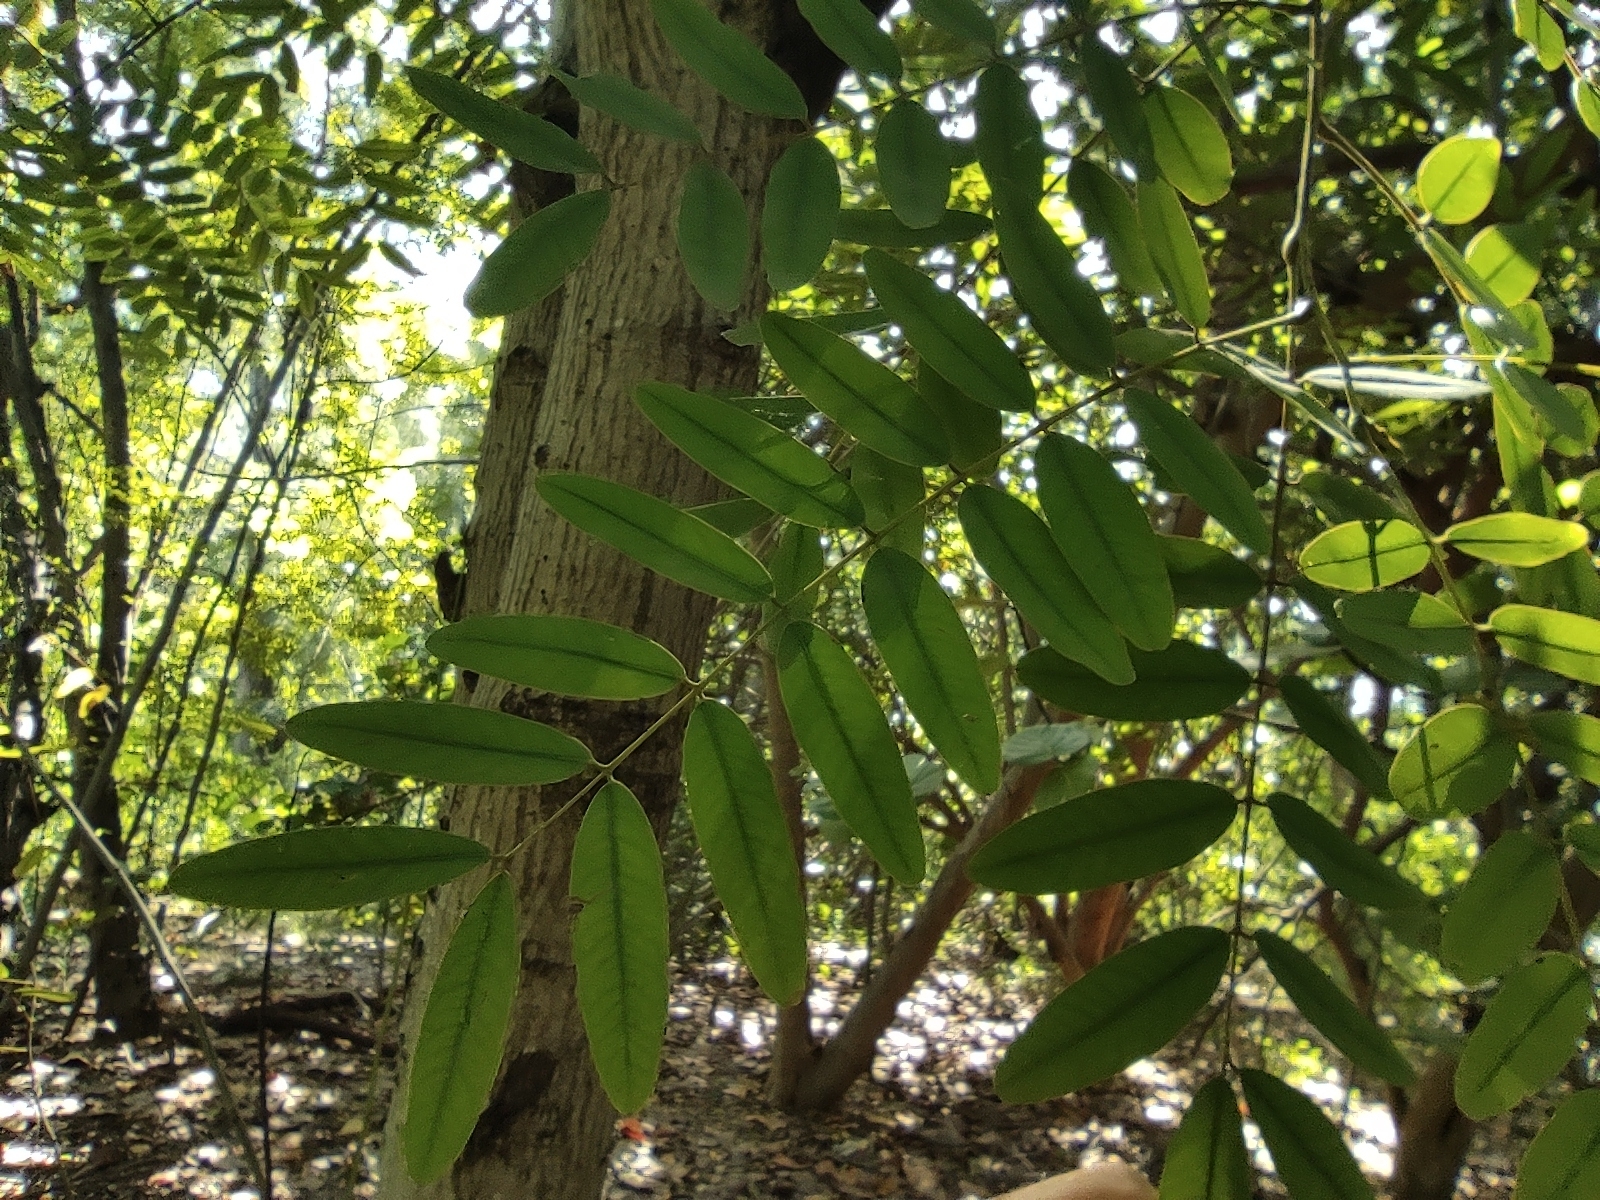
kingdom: Plantae
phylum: Tracheophyta
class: Magnoliopsida
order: Fabales
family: Fabaceae
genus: Senna
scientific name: Senna siamea
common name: Siamese cassia
